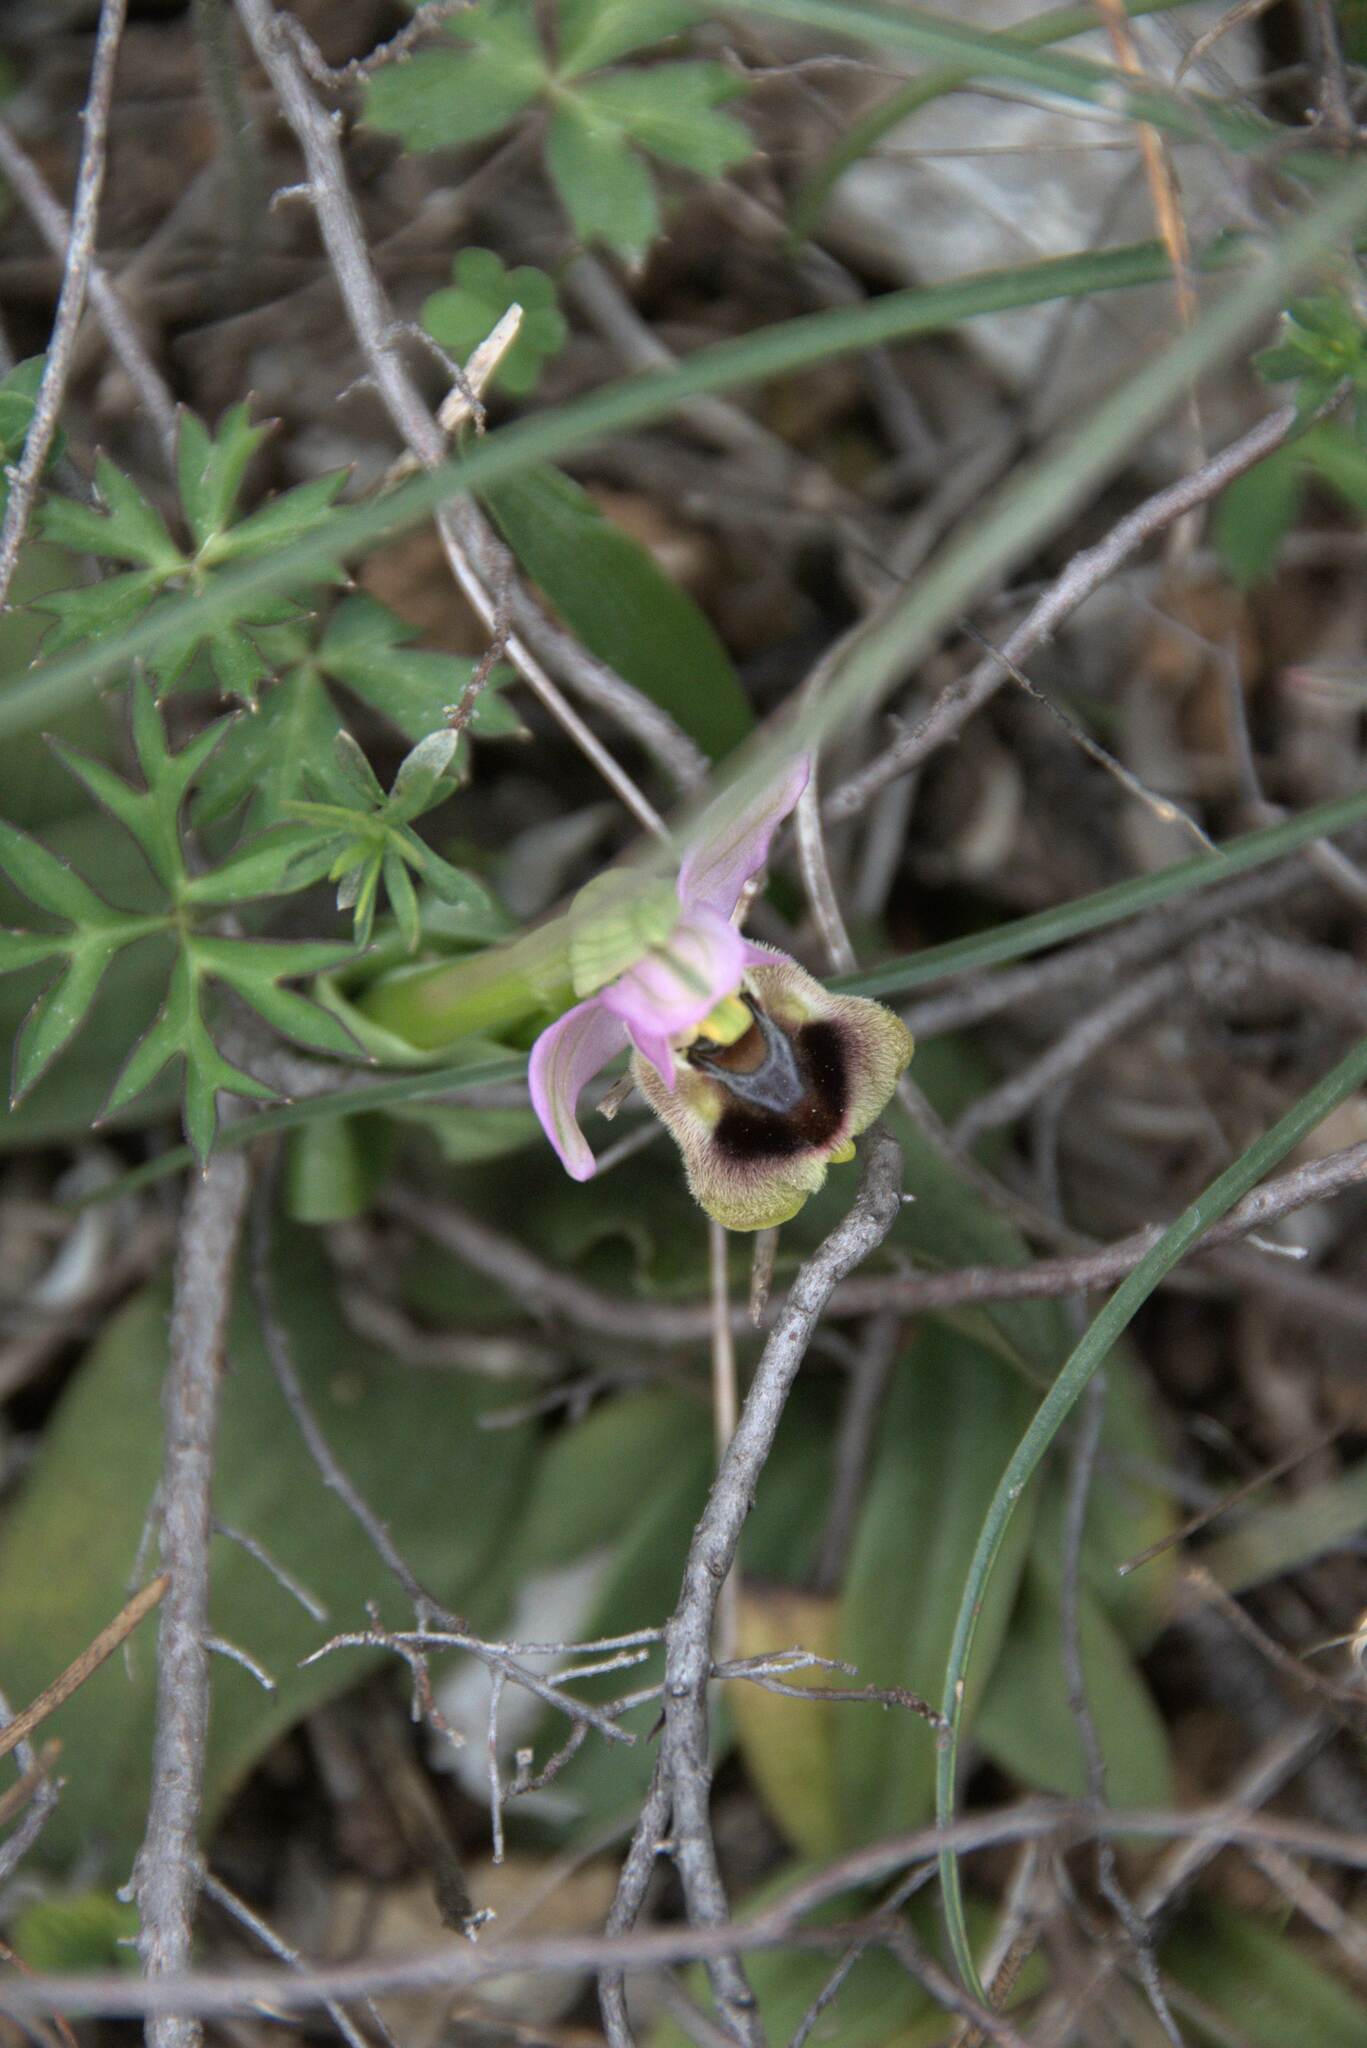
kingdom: Plantae
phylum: Tracheophyta
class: Liliopsida
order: Asparagales
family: Orchidaceae
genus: Ophrys
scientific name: Ophrys tenthredinifera
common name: Sawfly orchid
